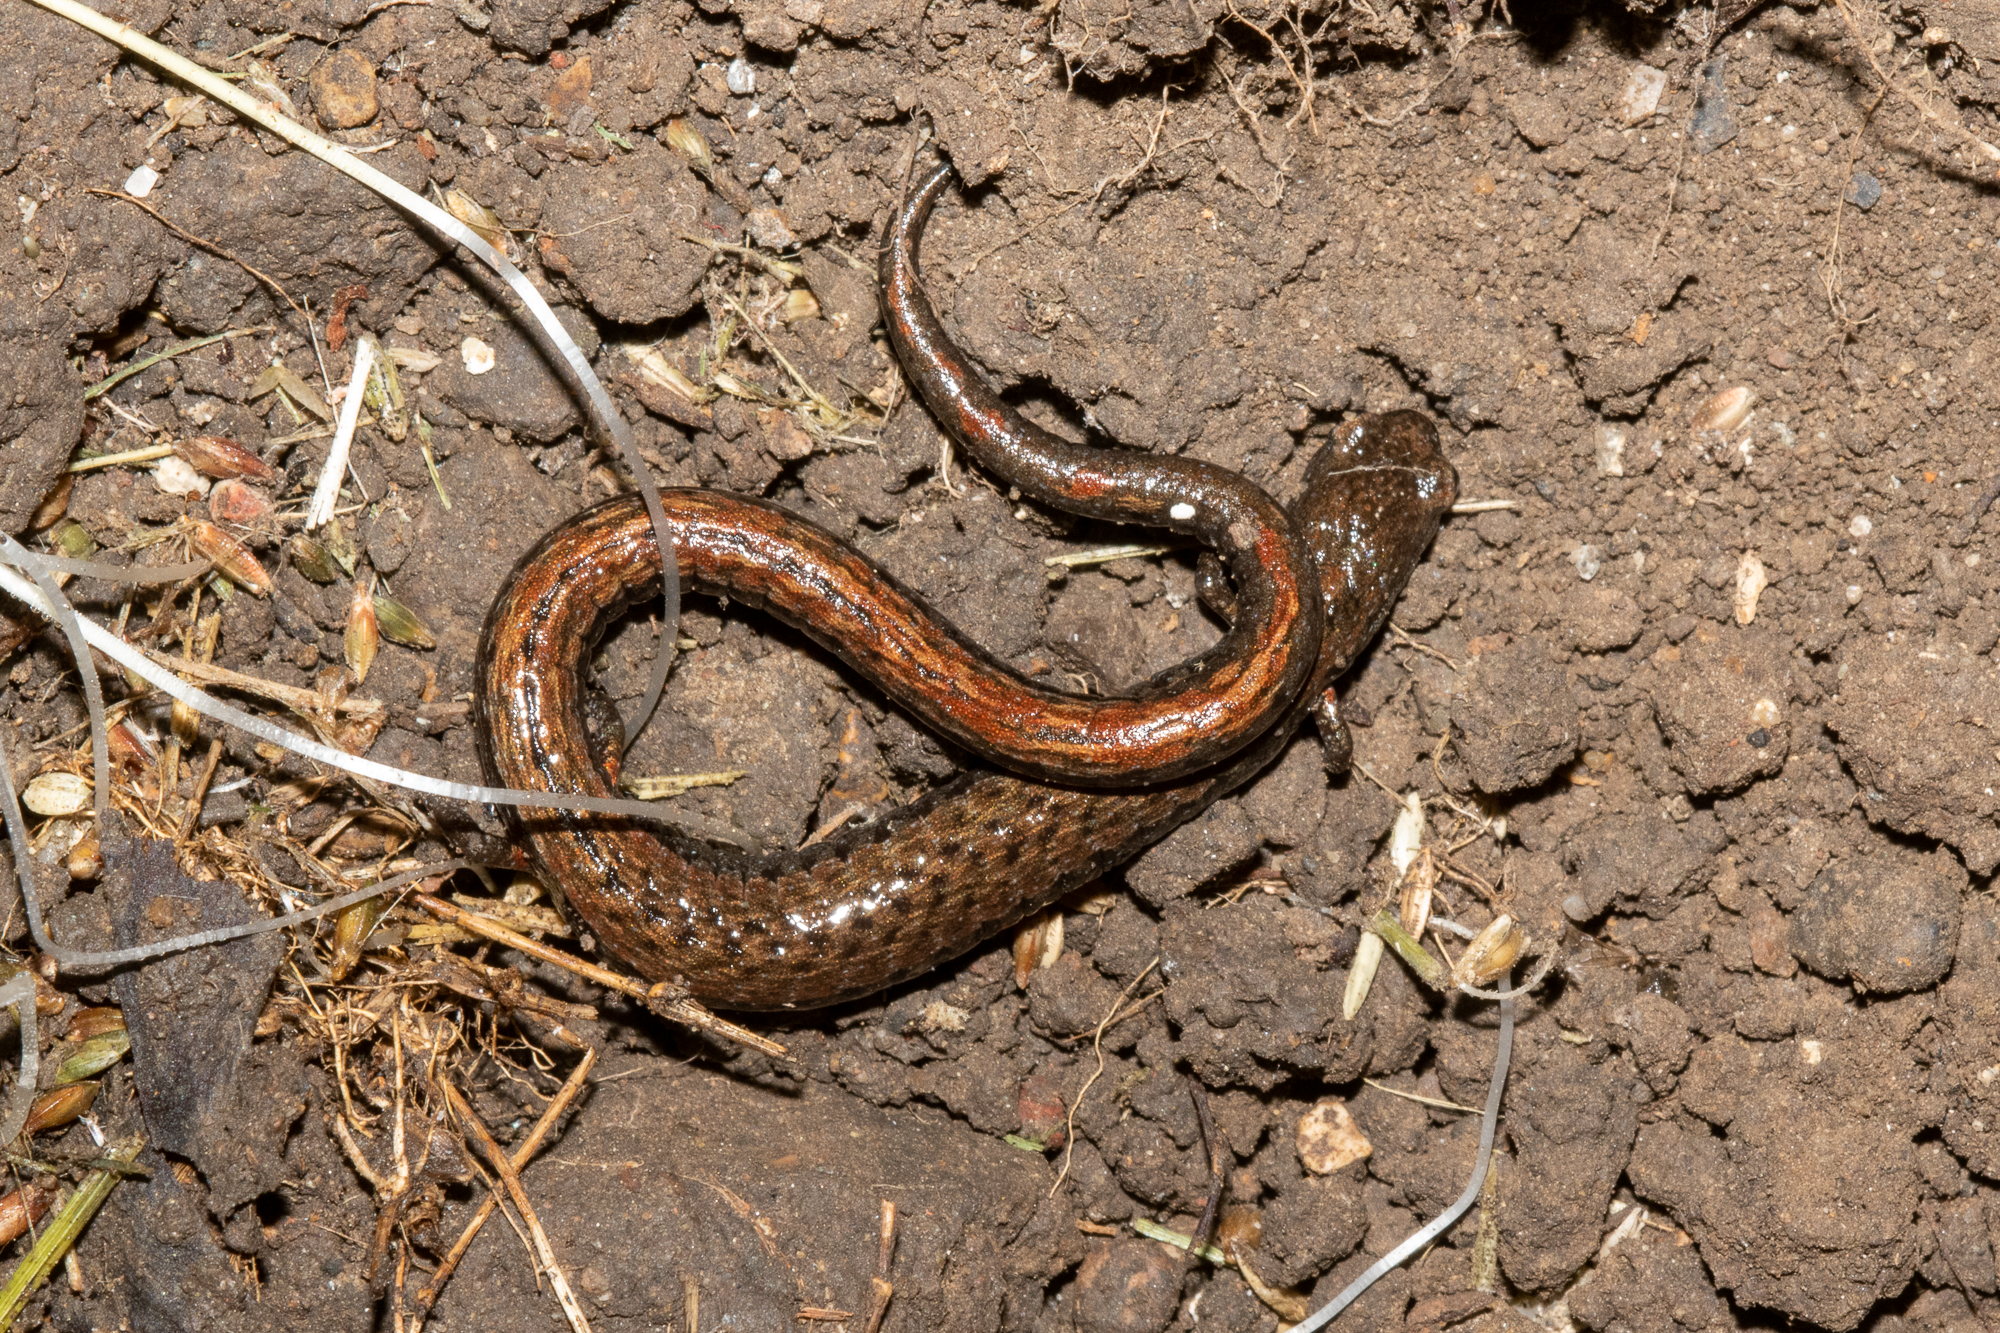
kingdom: Animalia
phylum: Chordata
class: Amphibia
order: Caudata
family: Plethodontidae
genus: Batrachoseps
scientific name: Batrachoseps attenuatus
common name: California slender salamander
